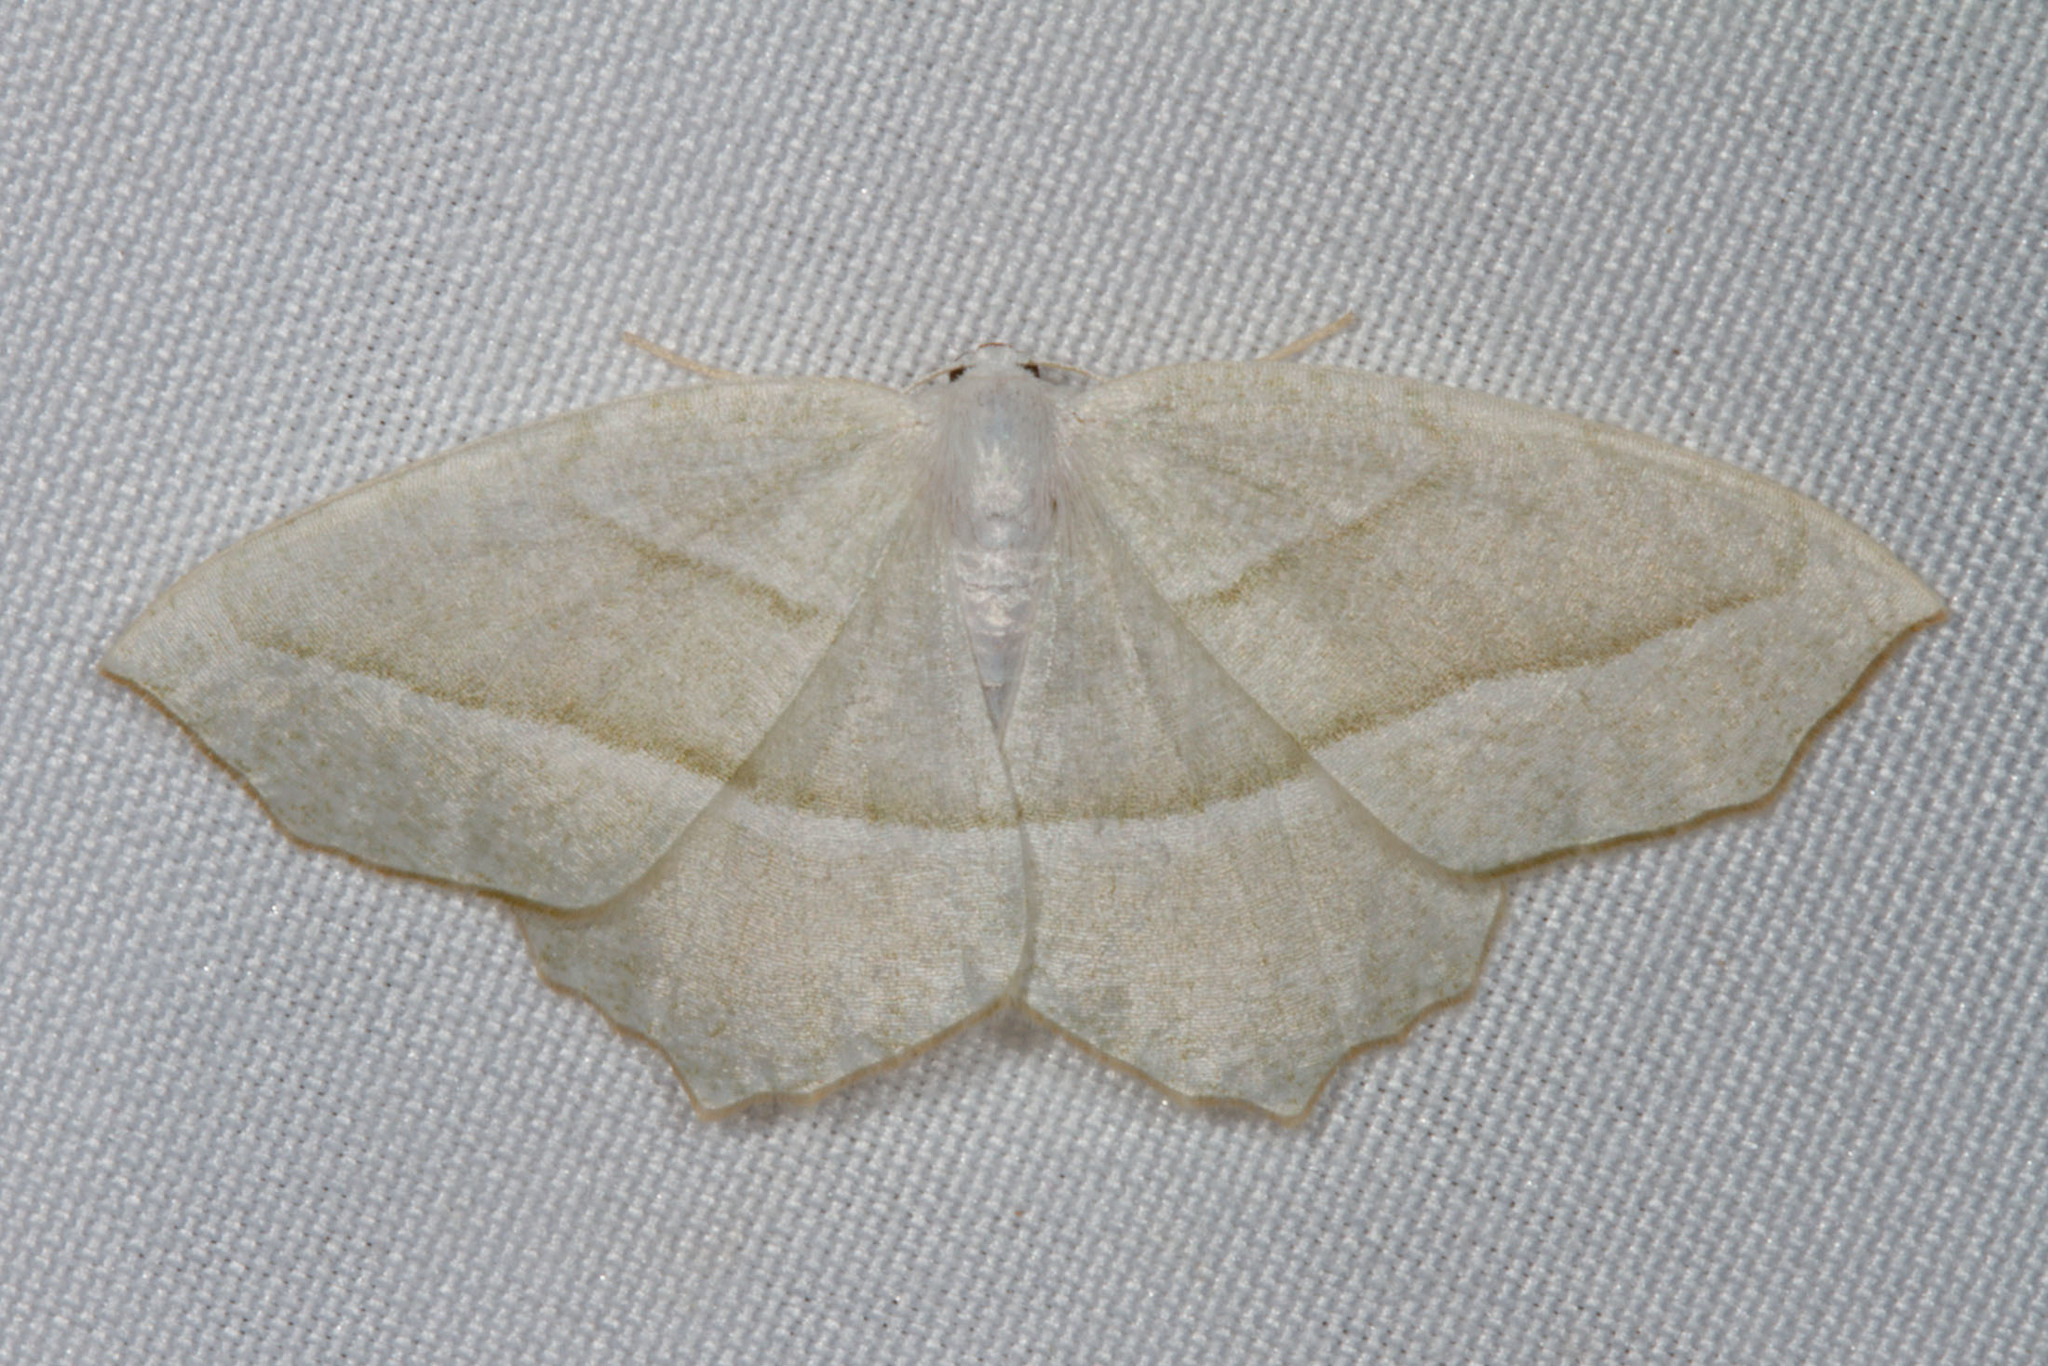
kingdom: Animalia
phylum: Arthropoda
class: Insecta
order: Lepidoptera
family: Geometridae
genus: Campaea
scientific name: Campaea perlata
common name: Fringed looper
